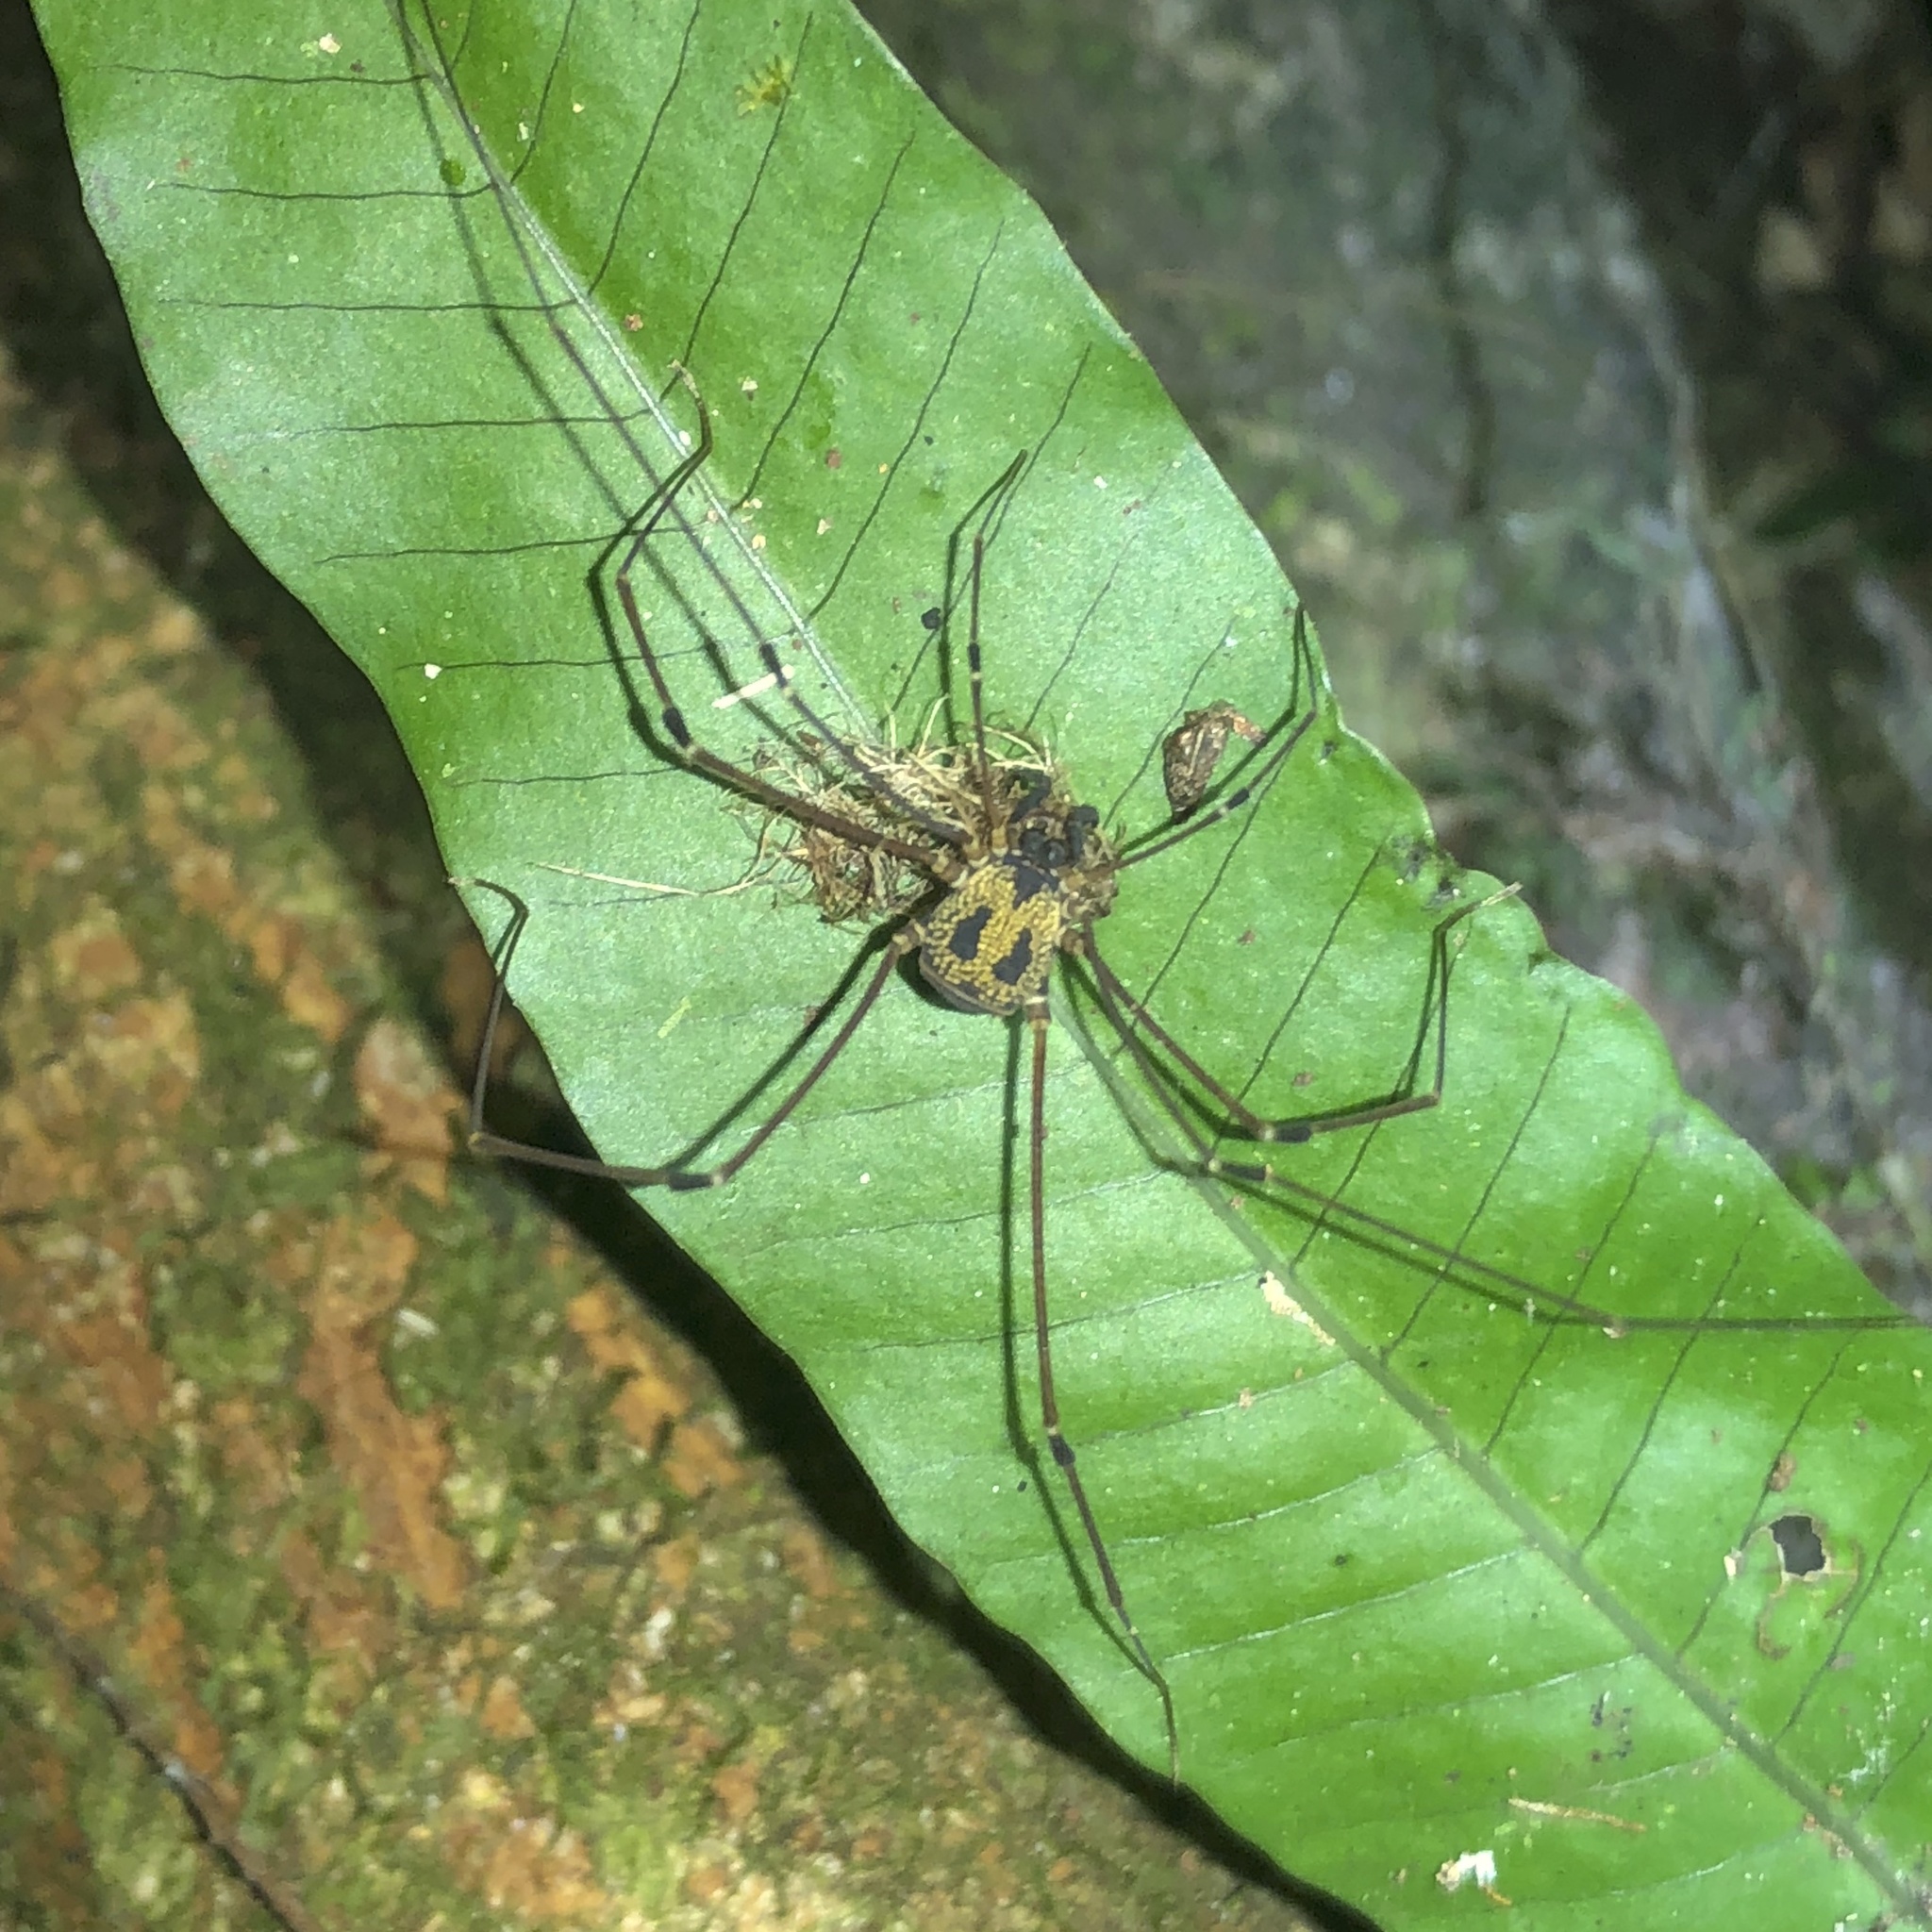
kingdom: Animalia
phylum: Arthropoda
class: Arachnida
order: Opiliones
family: Cosmetidae
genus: Paecilaema
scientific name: Paecilaema chiriquiense
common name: Harvestmen
